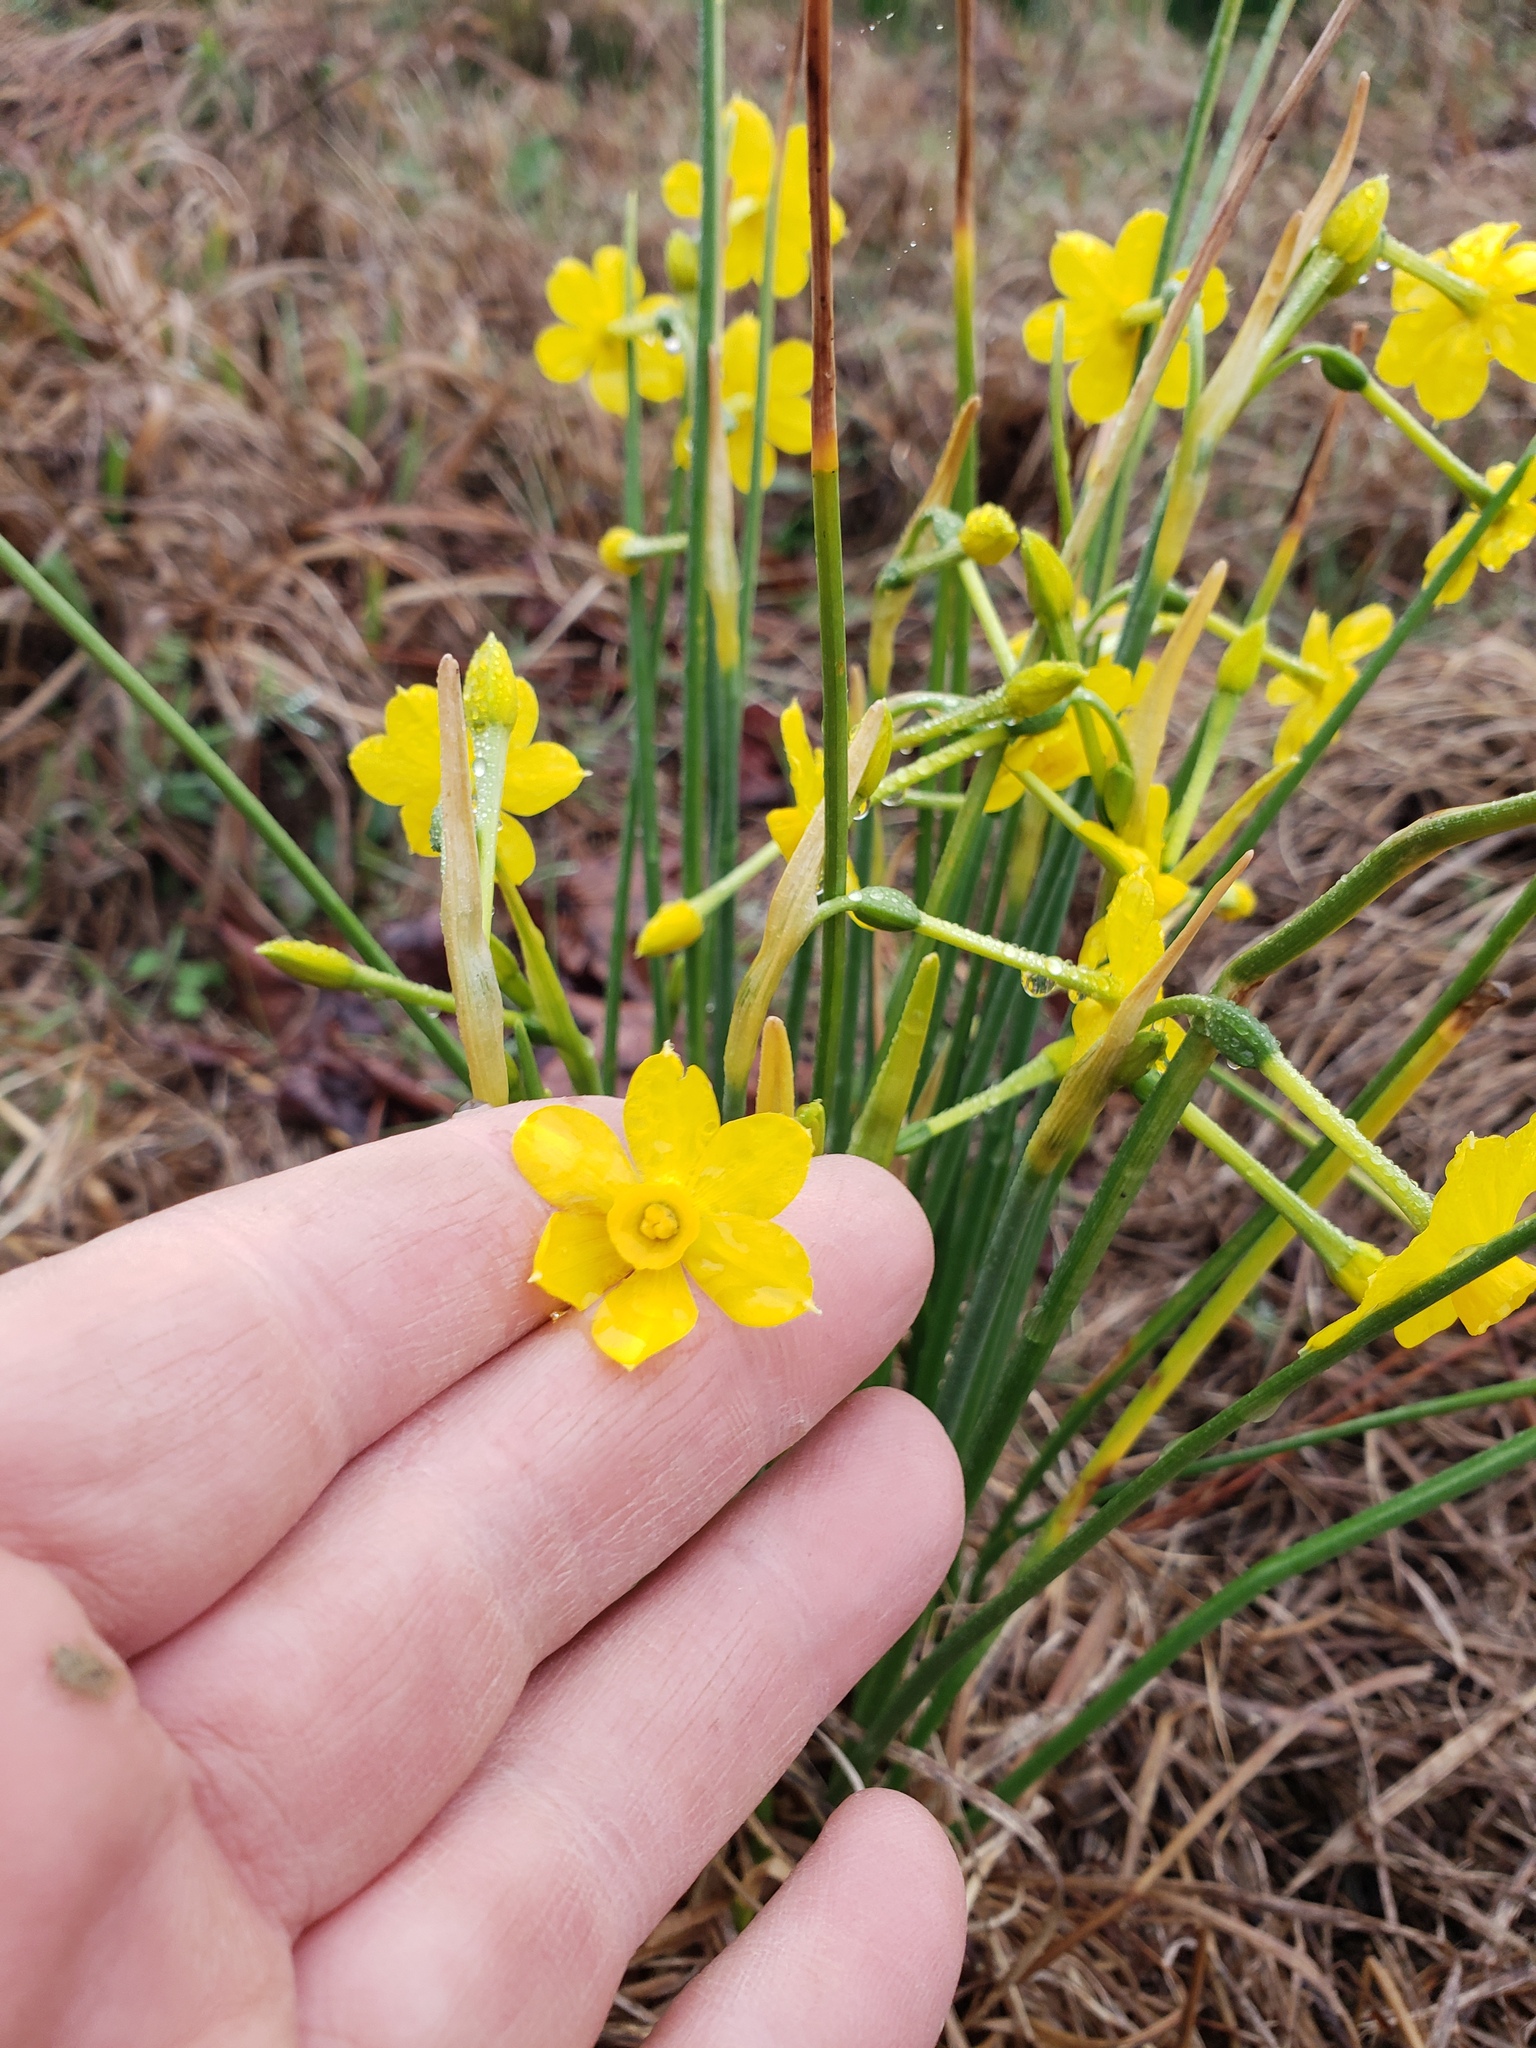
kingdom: Plantae
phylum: Tracheophyta
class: Liliopsida
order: Asparagales
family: Amaryllidaceae
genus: Narcissus
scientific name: Narcissus jonquilla
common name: Jonquil
